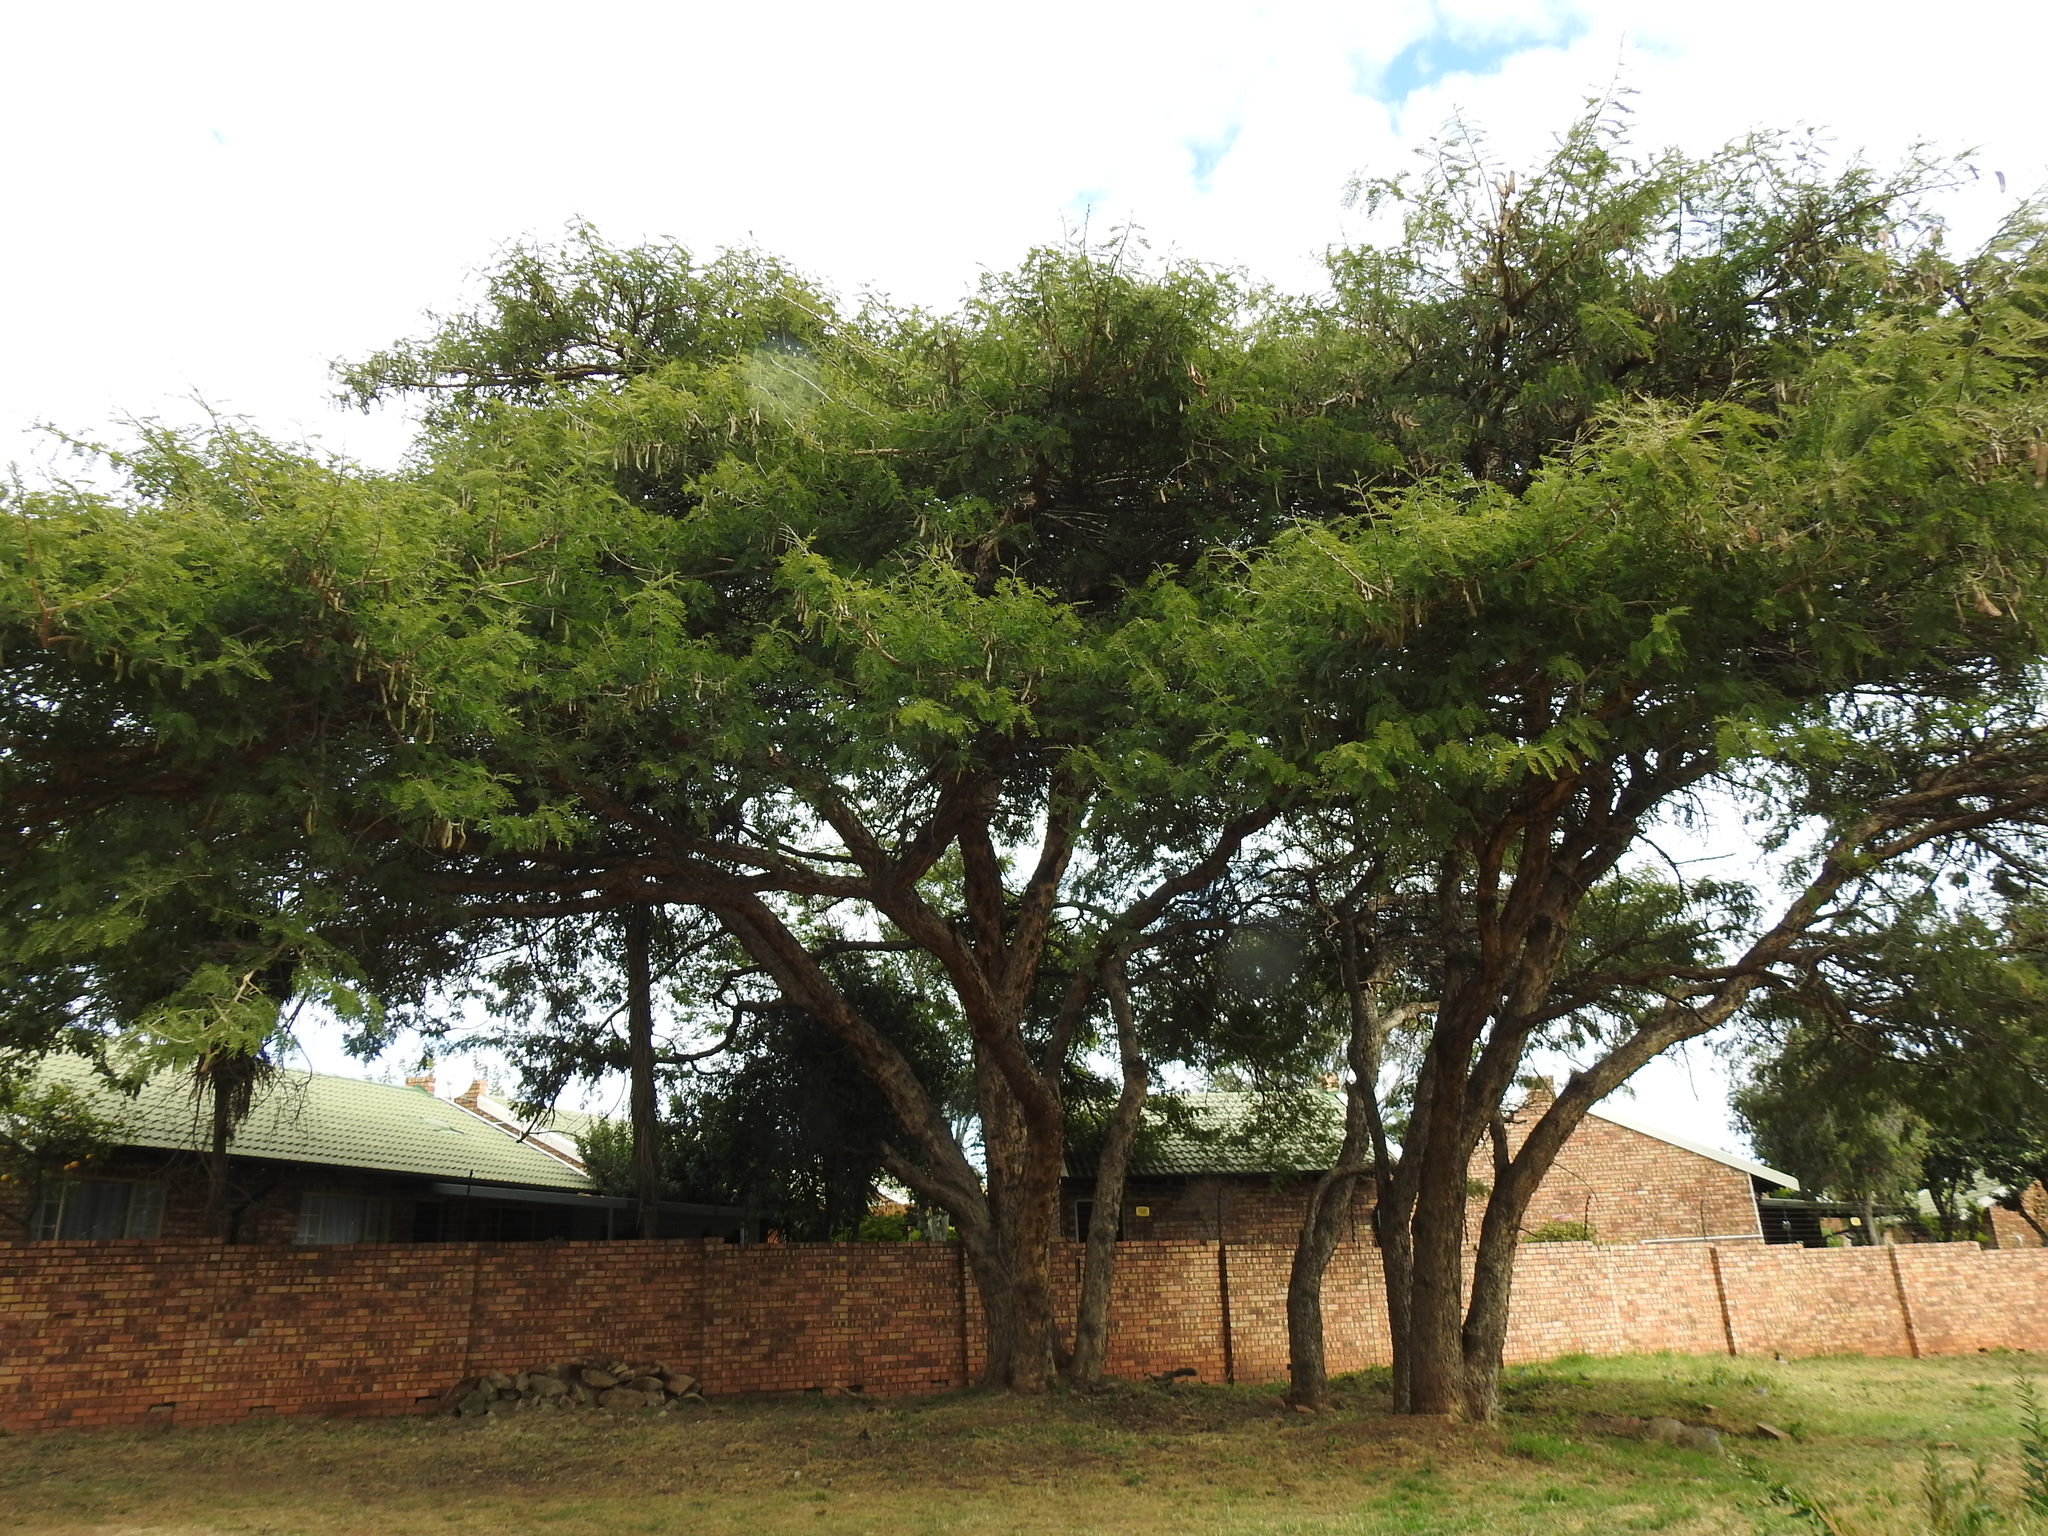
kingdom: Plantae
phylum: Tracheophyta
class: Magnoliopsida
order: Fabales
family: Fabaceae
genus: Vachellia
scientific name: Vachellia sieberiana
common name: Flat-topped thorn
